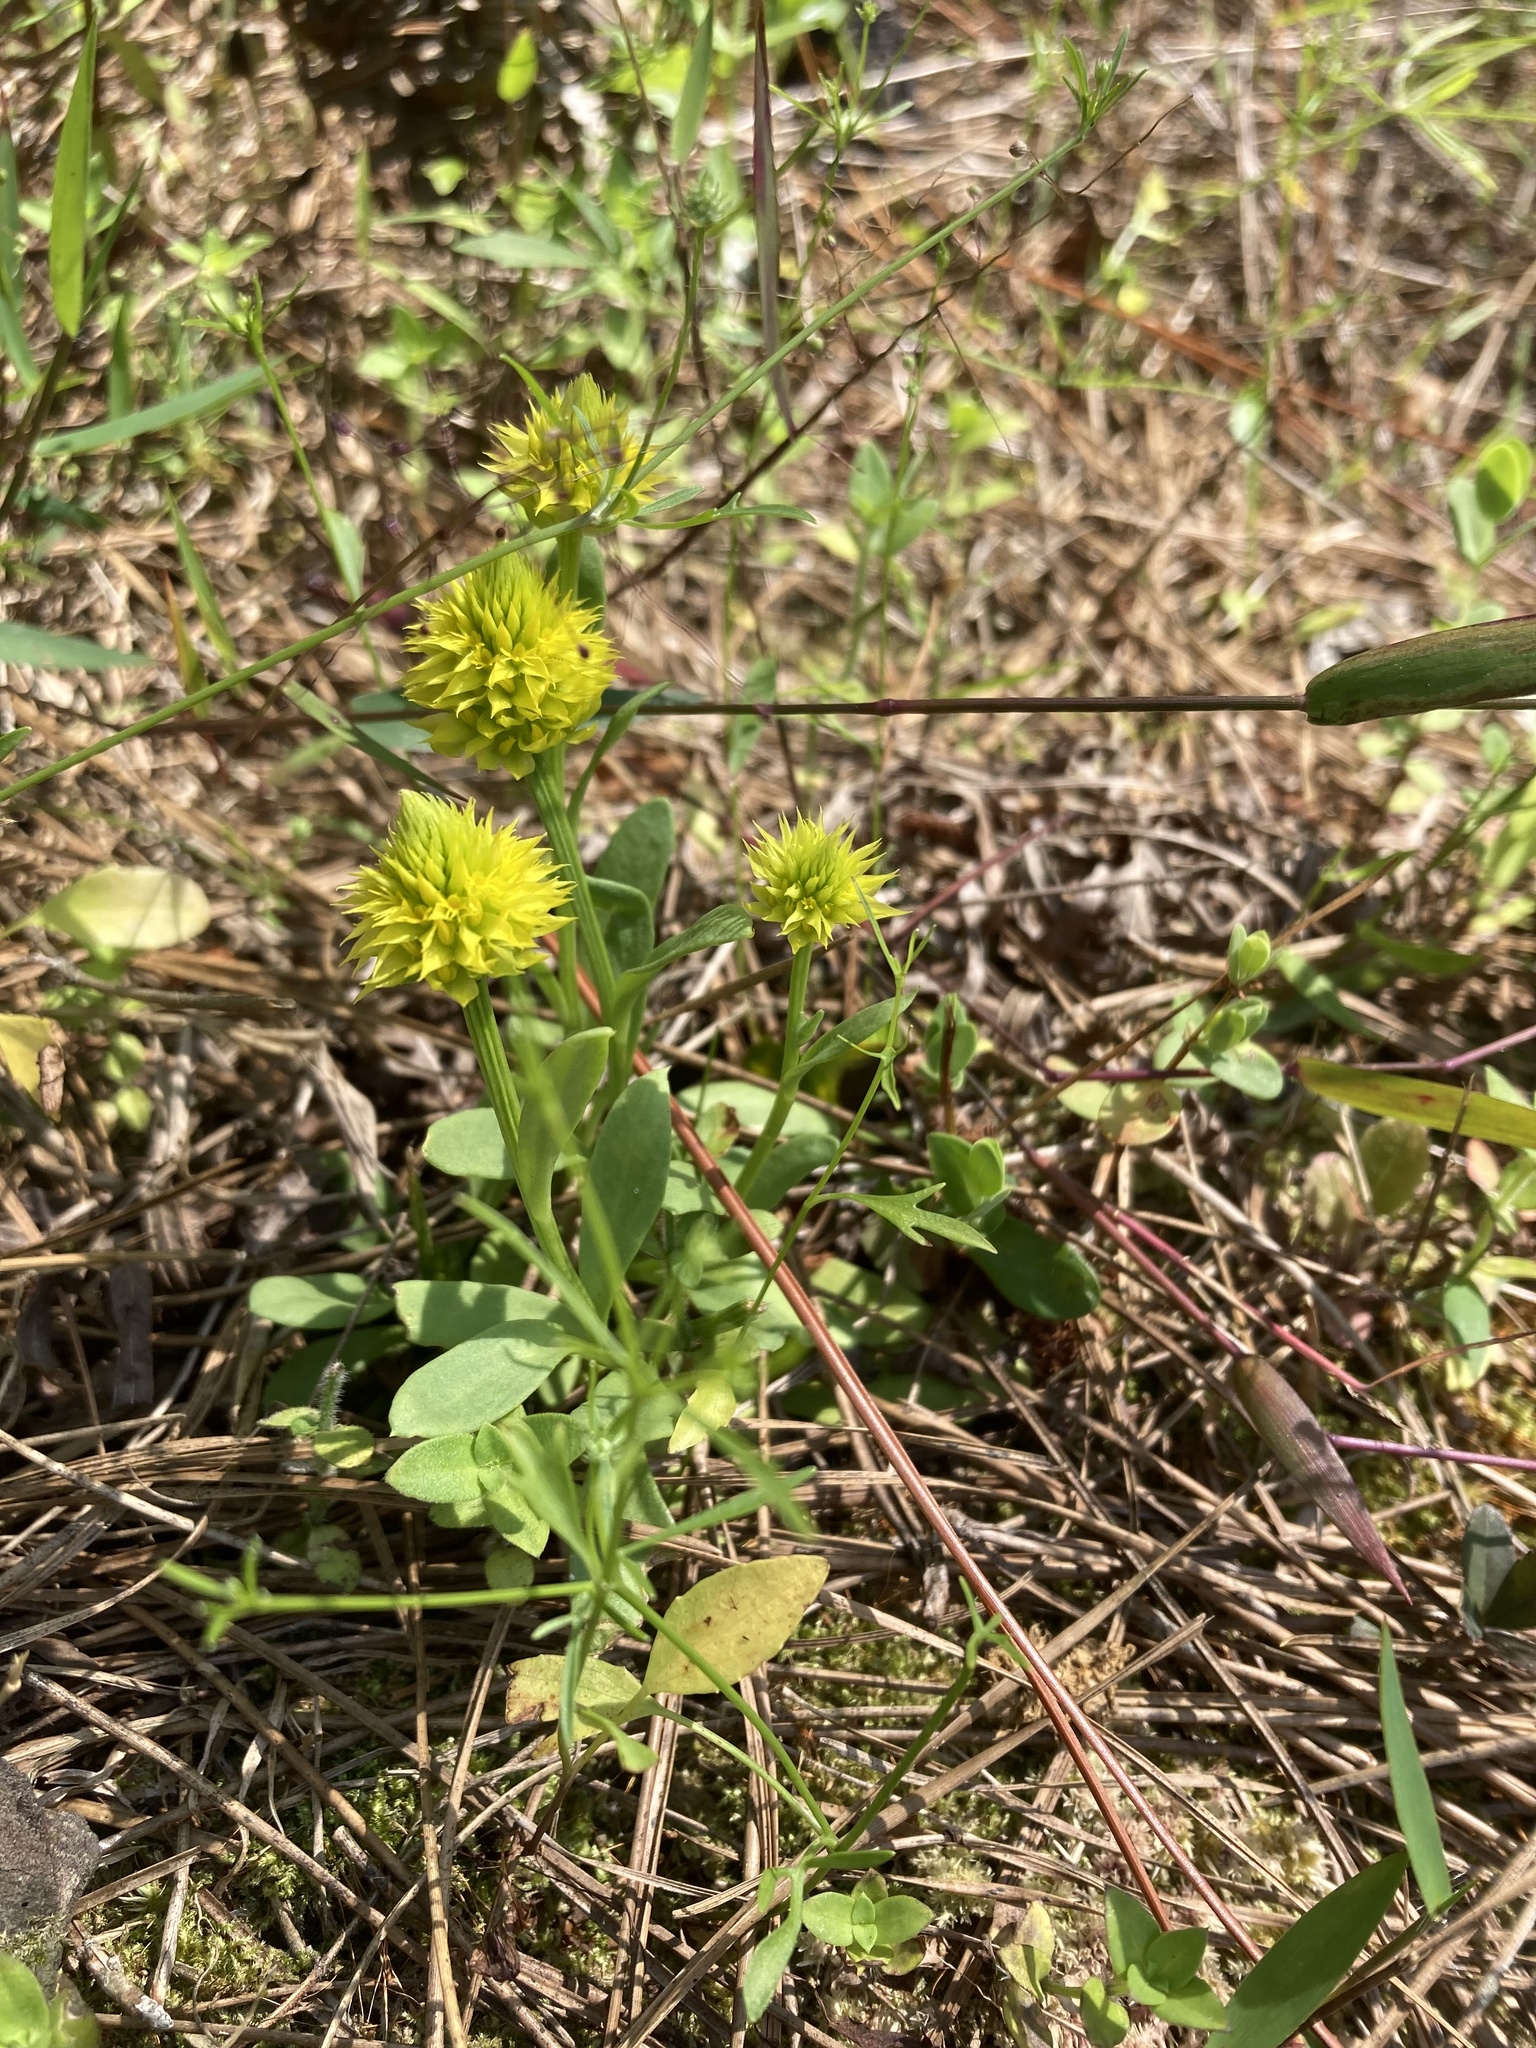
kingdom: Plantae
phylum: Tracheophyta
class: Magnoliopsida
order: Fabales
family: Polygalaceae
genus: Polygala
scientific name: Polygala nana
